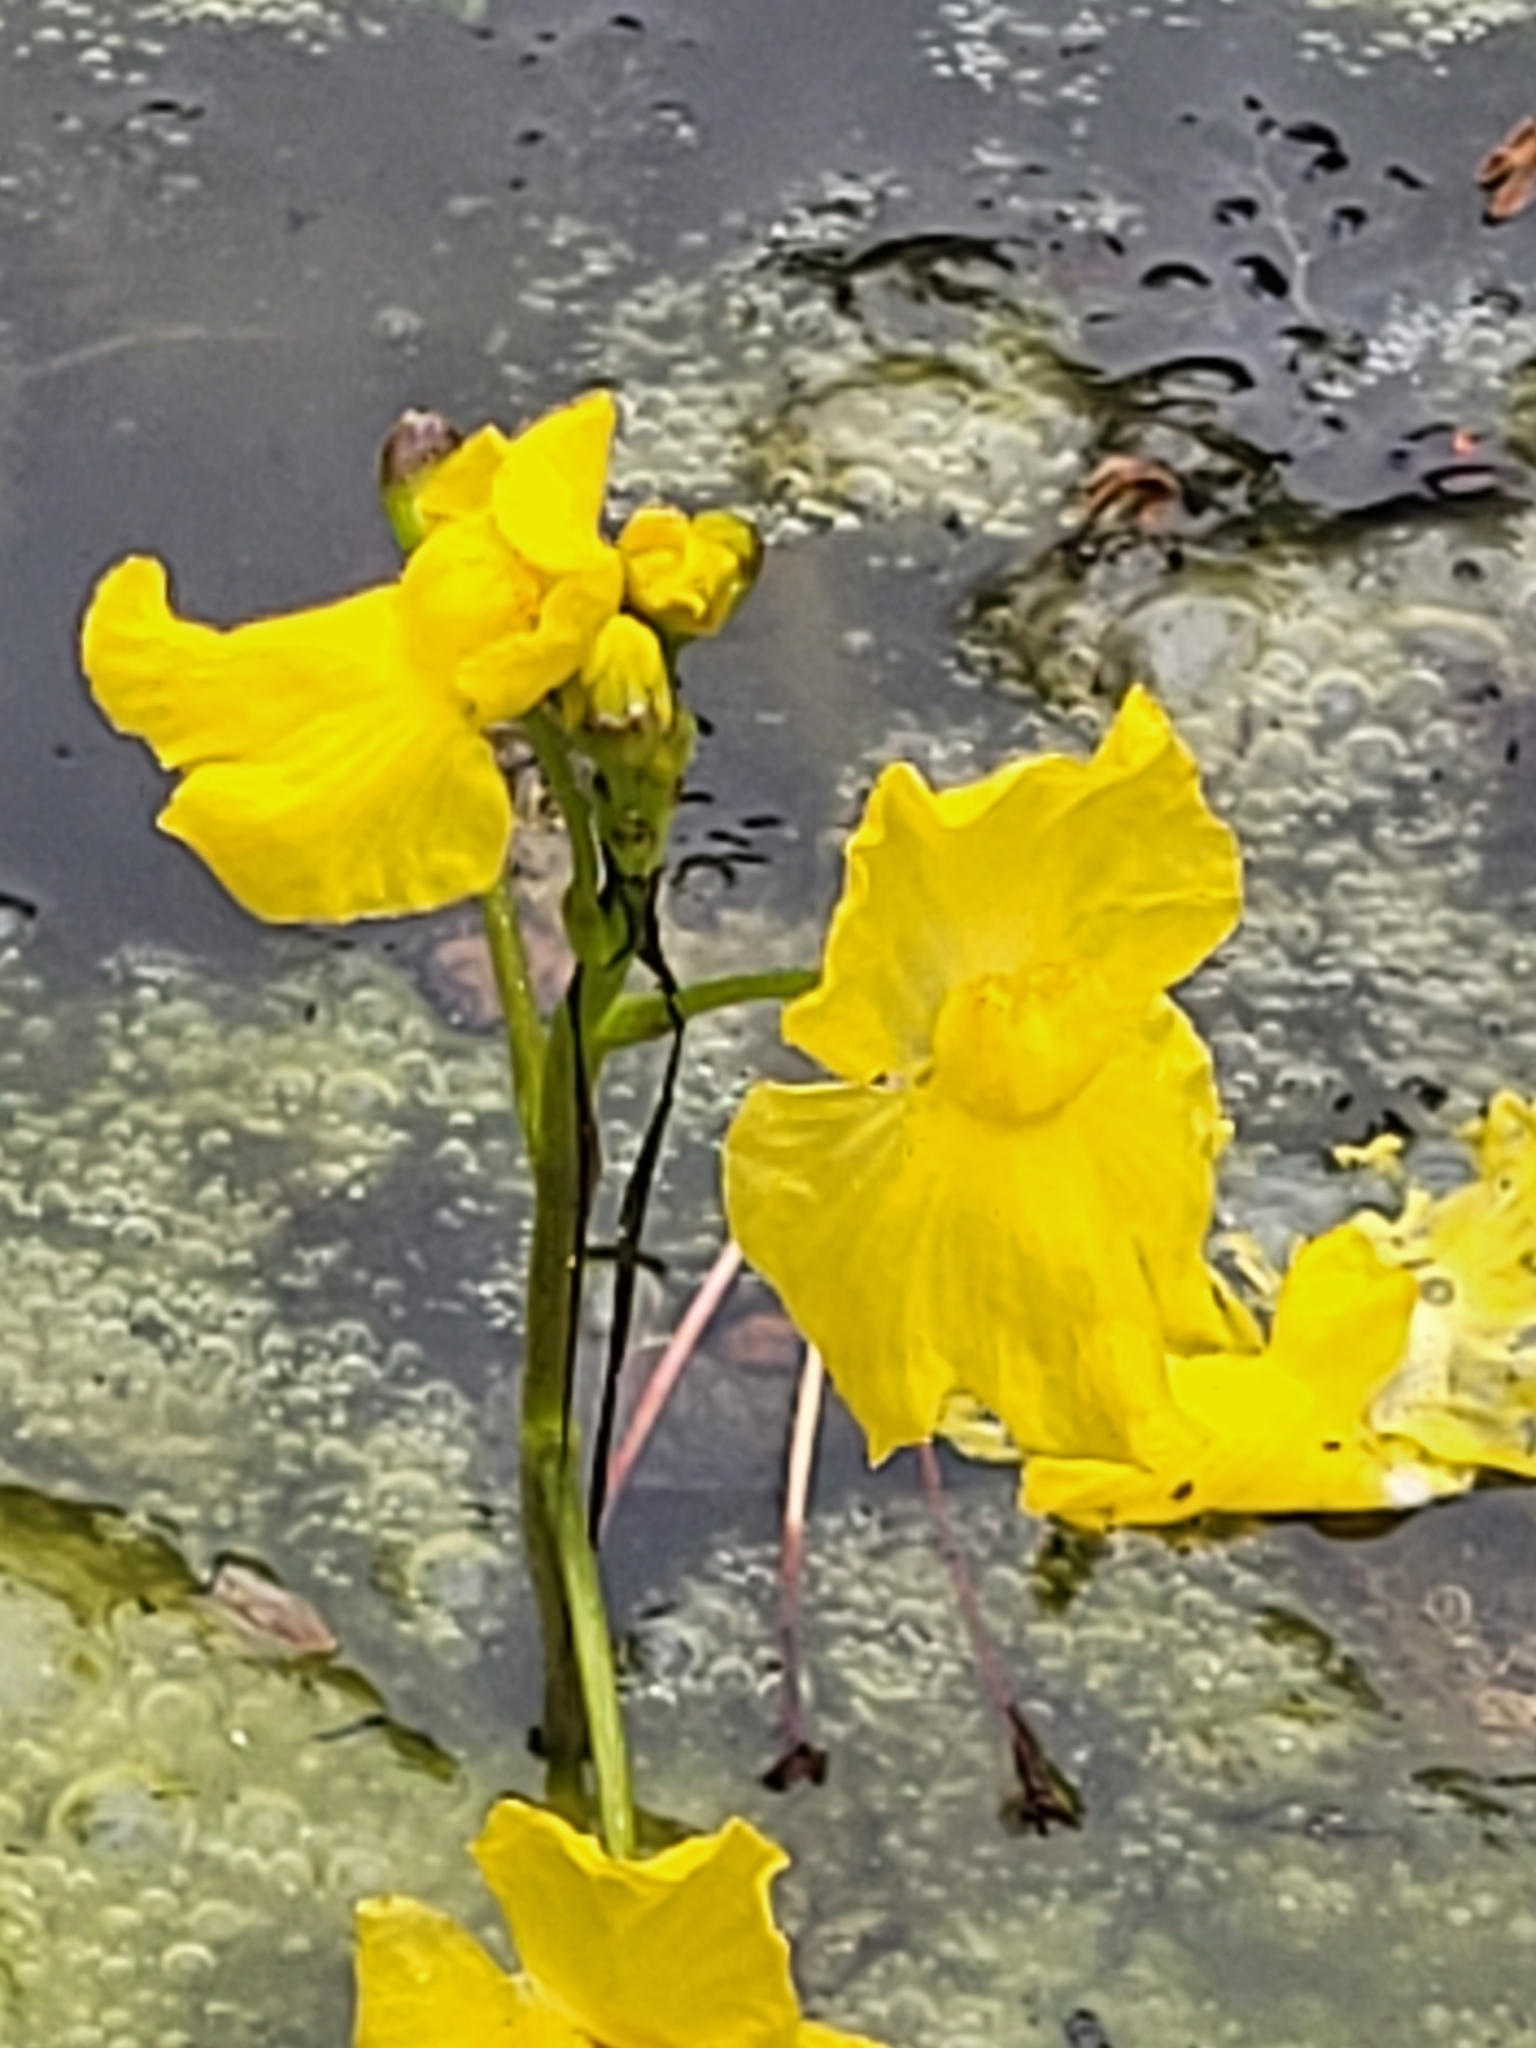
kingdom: Plantae
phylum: Tracheophyta
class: Magnoliopsida
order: Lamiales
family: Lentibulariaceae
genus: Utricularia
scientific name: Utricularia inflata
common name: Floating bladderwort
